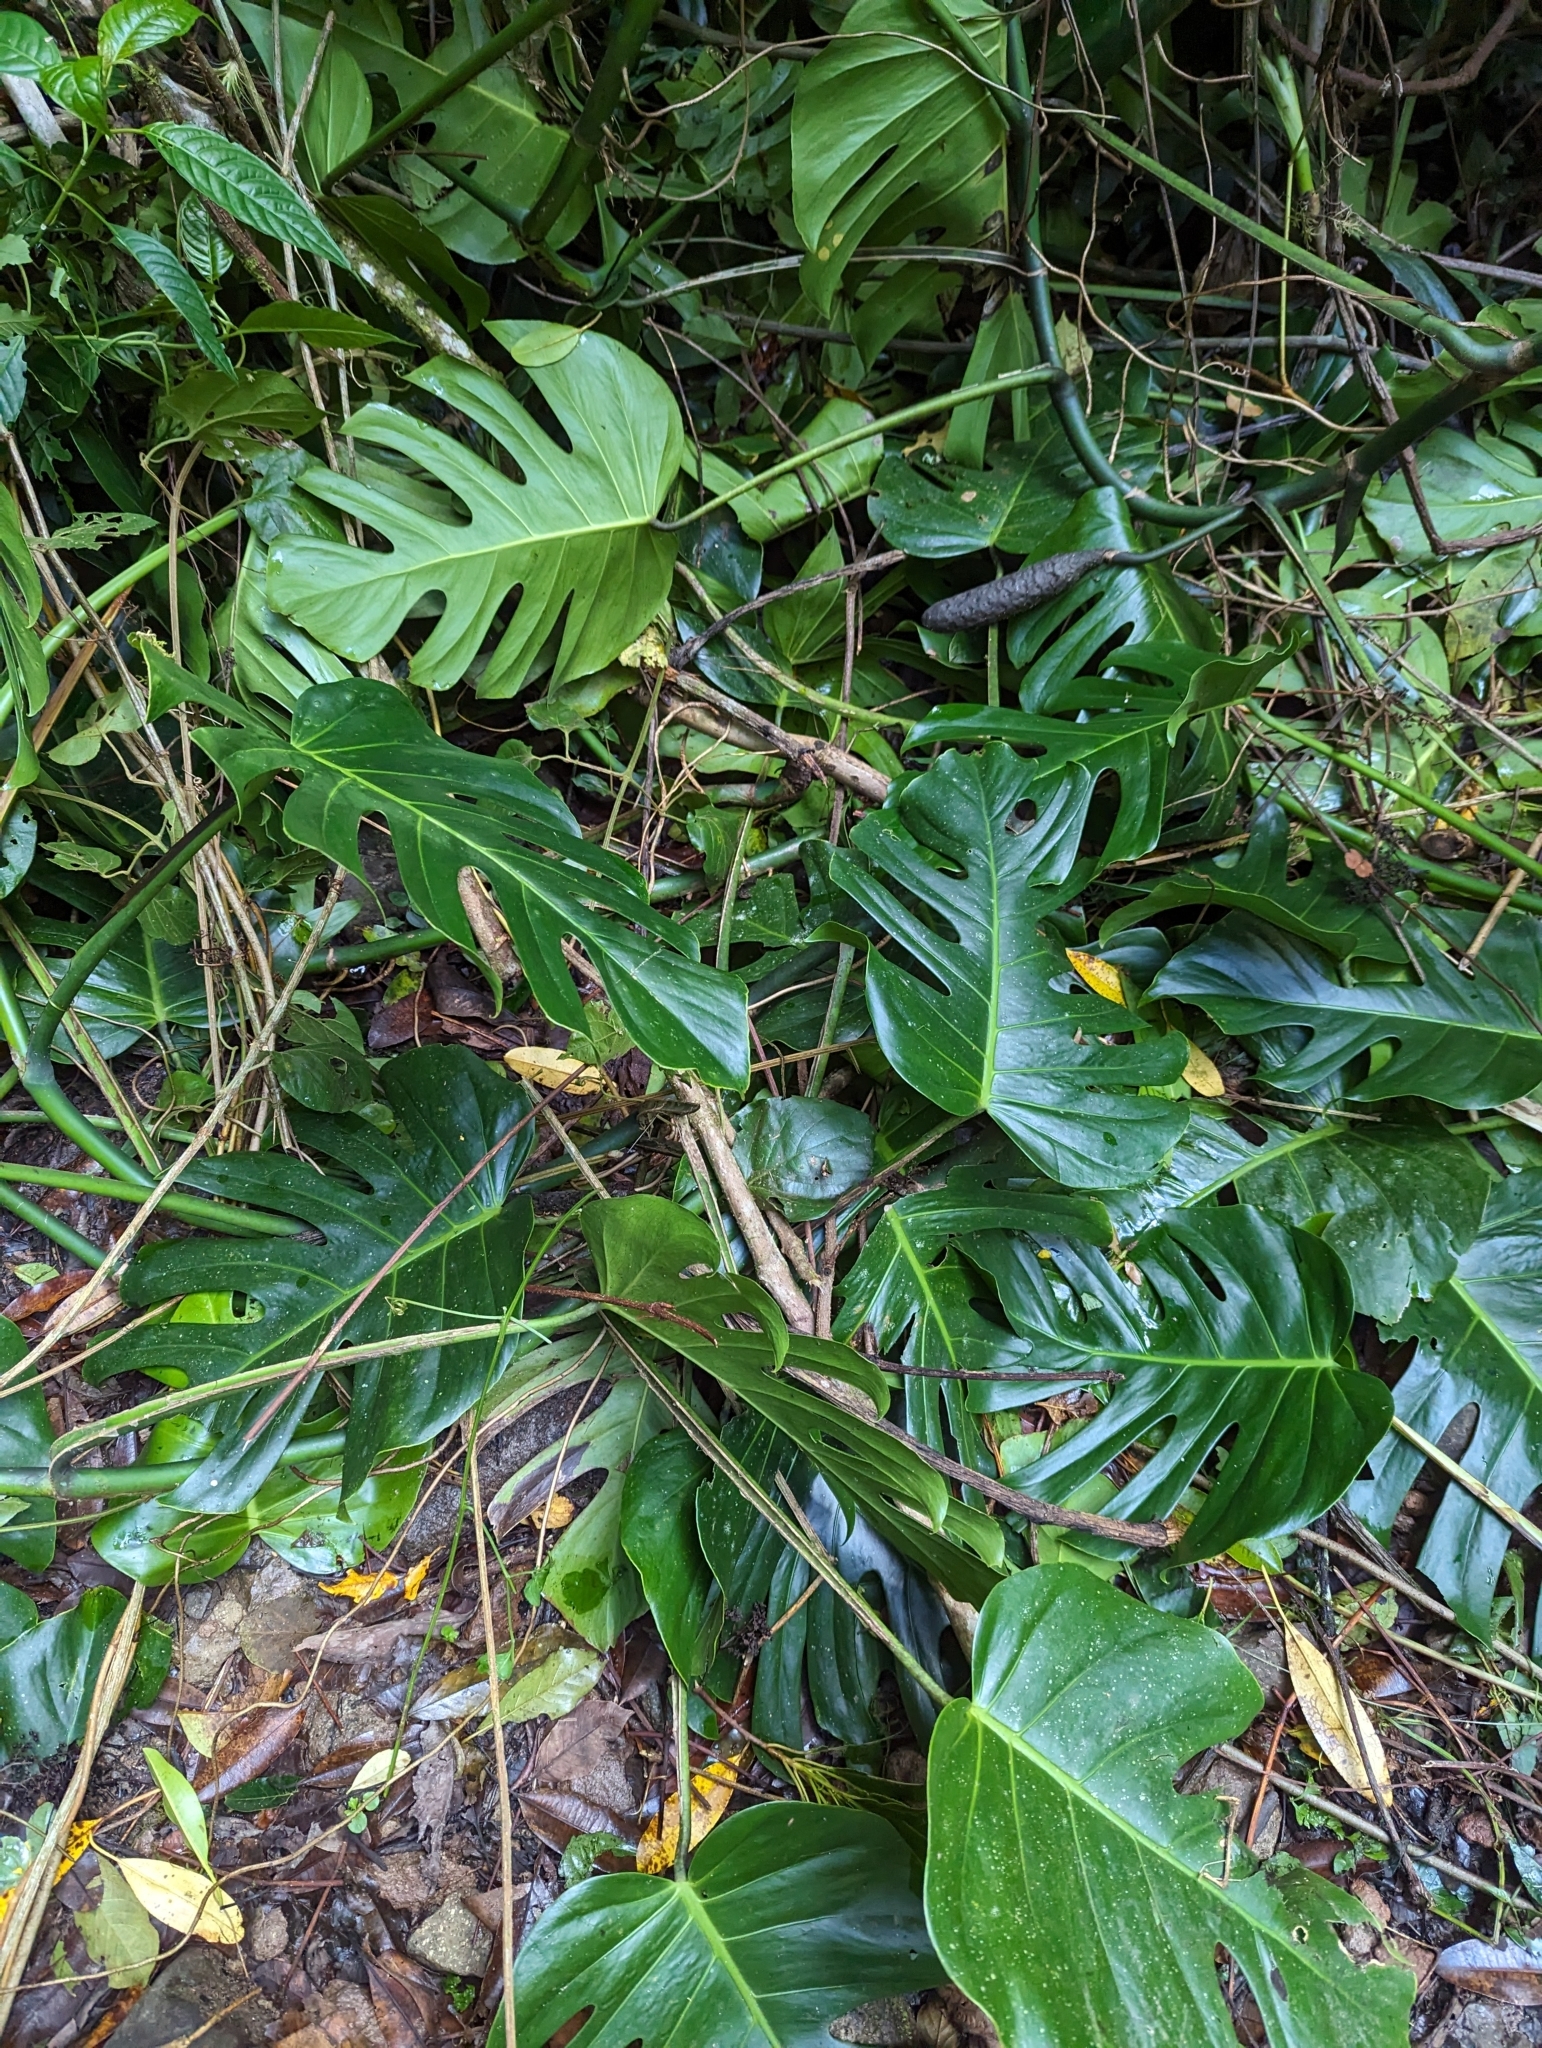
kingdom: Plantae
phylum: Tracheophyta
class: Liliopsida
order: Alismatales
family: Araceae
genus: Monstera
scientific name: Monstera tacanaensis
